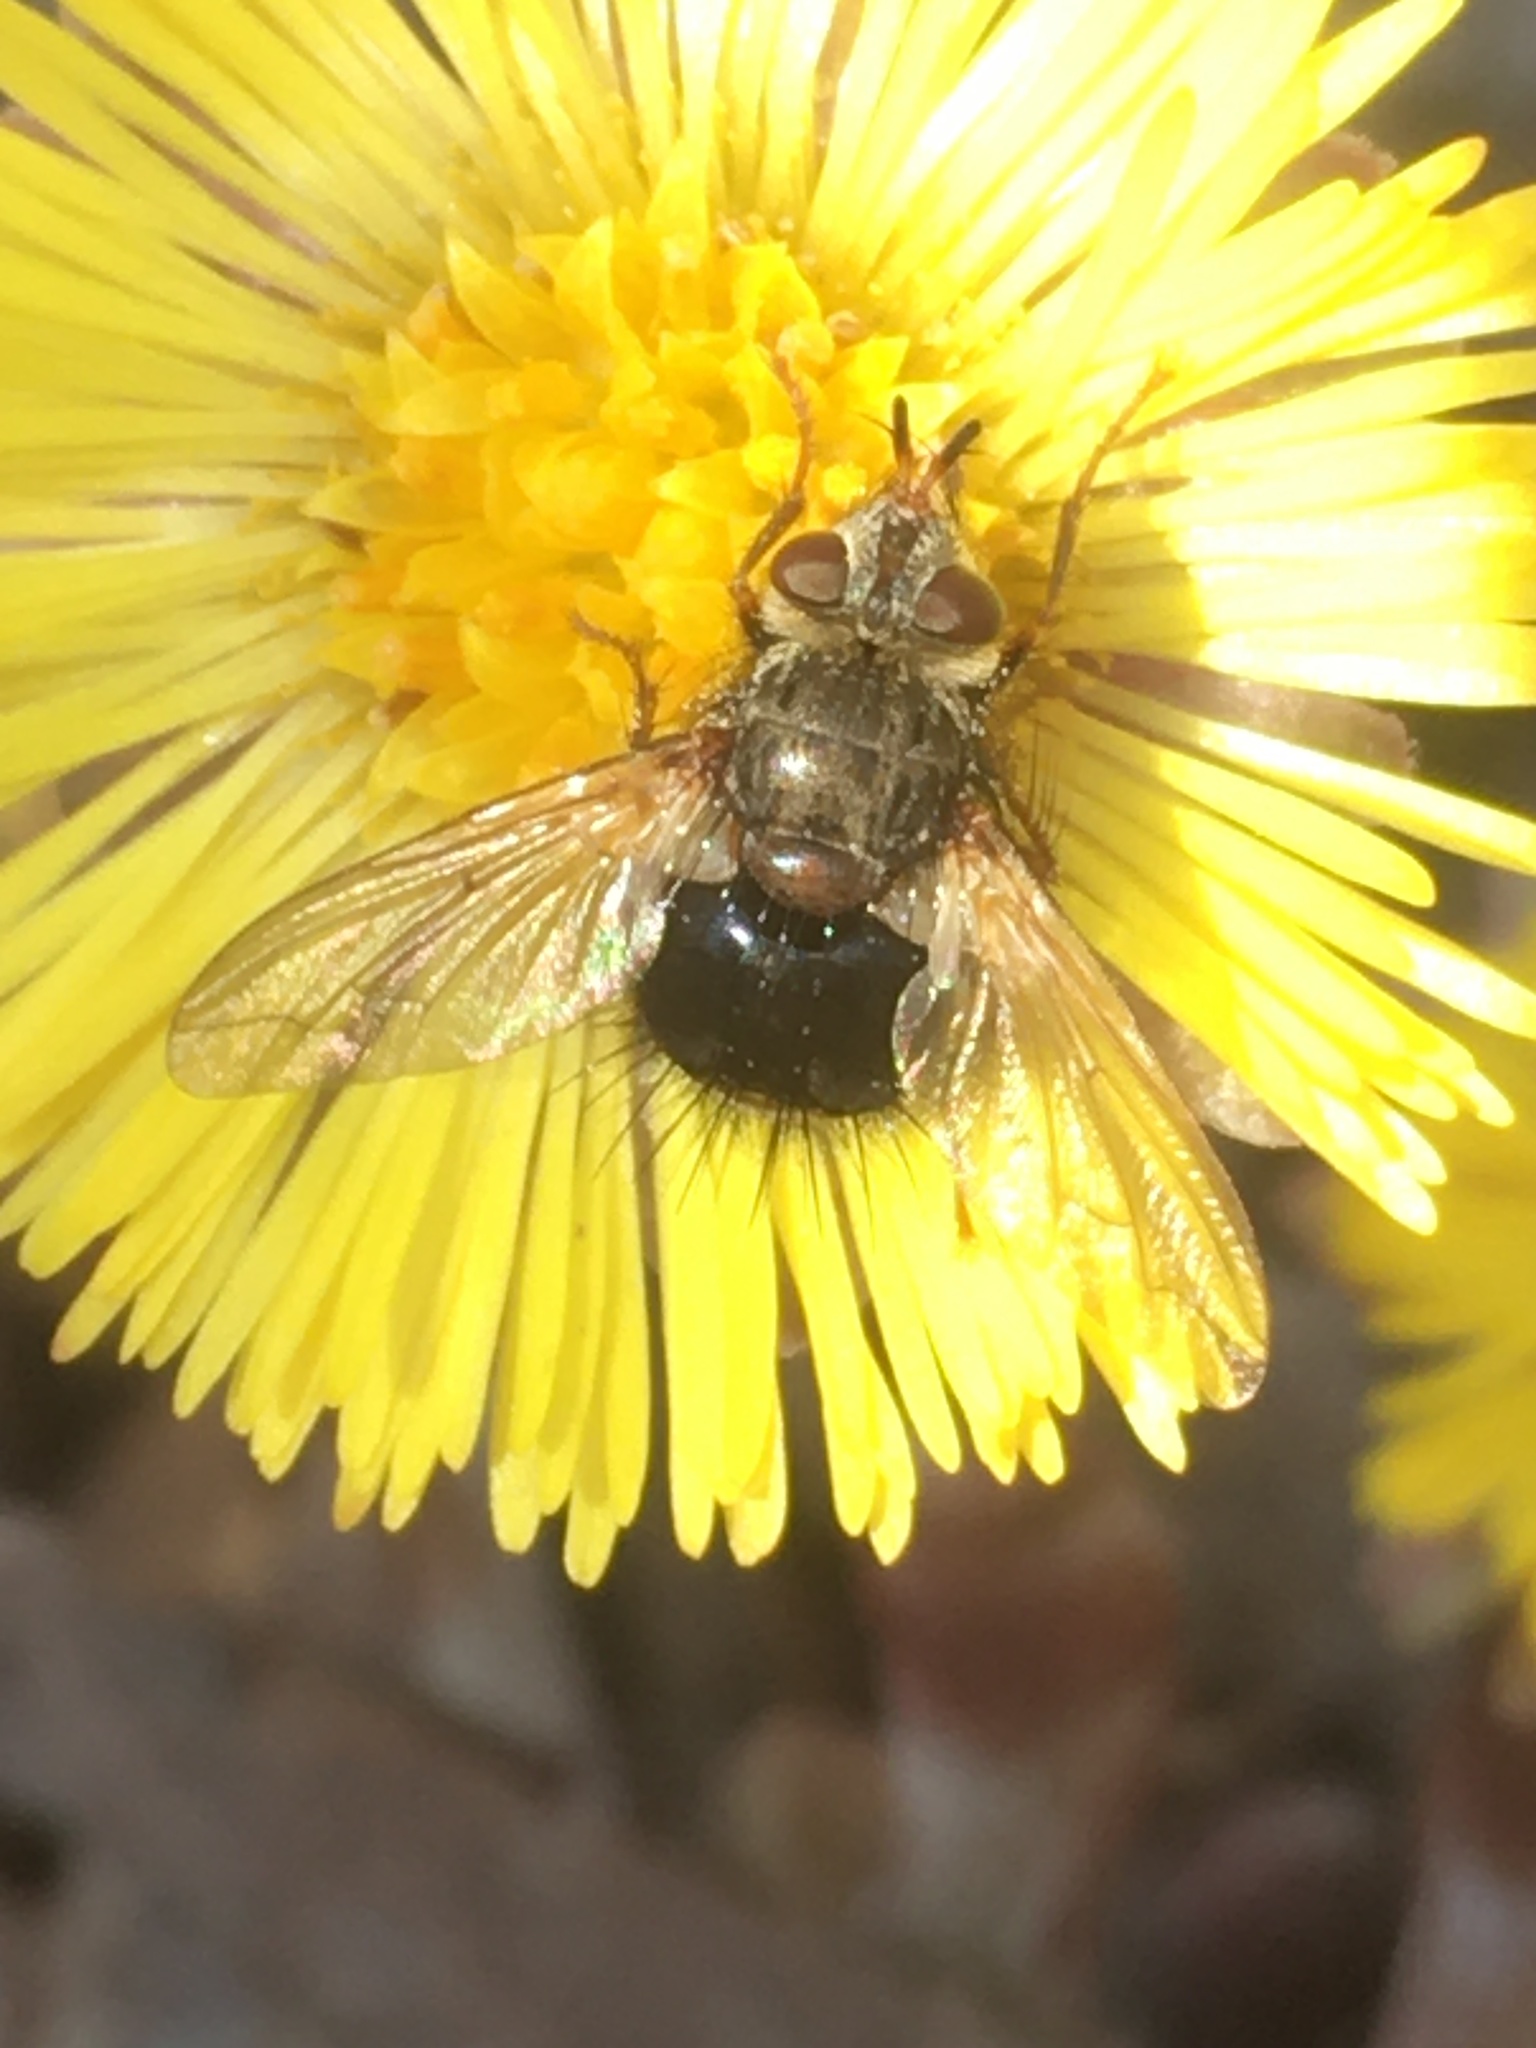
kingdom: Animalia
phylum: Arthropoda
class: Insecta
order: Diptera
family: Tachinidae
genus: Epalpus
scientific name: Epalpus signifer
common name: Early tachinid fly
